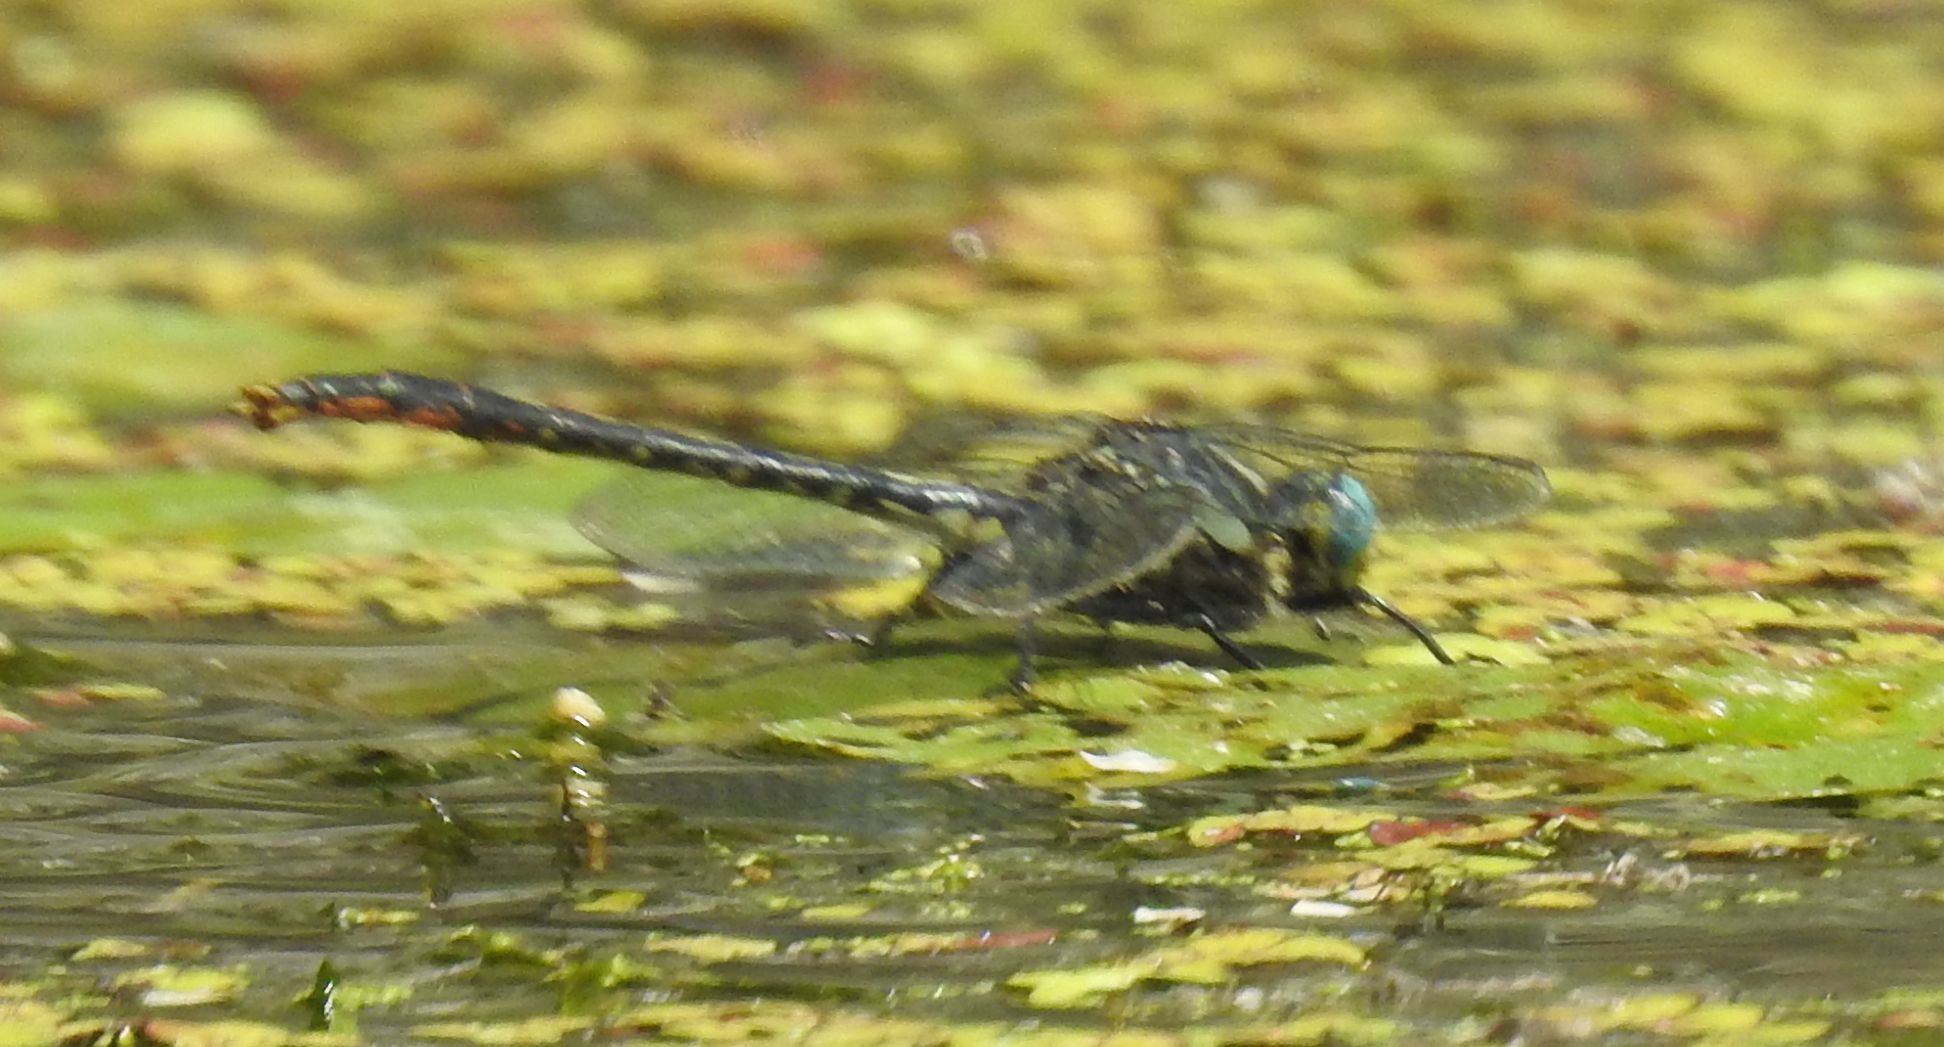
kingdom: Animalia
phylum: Arthropoda
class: Insecta
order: Odonata
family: Gomphidae
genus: Arigomphus
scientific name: Arigomphus furcifer
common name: Lilypad clubtail
